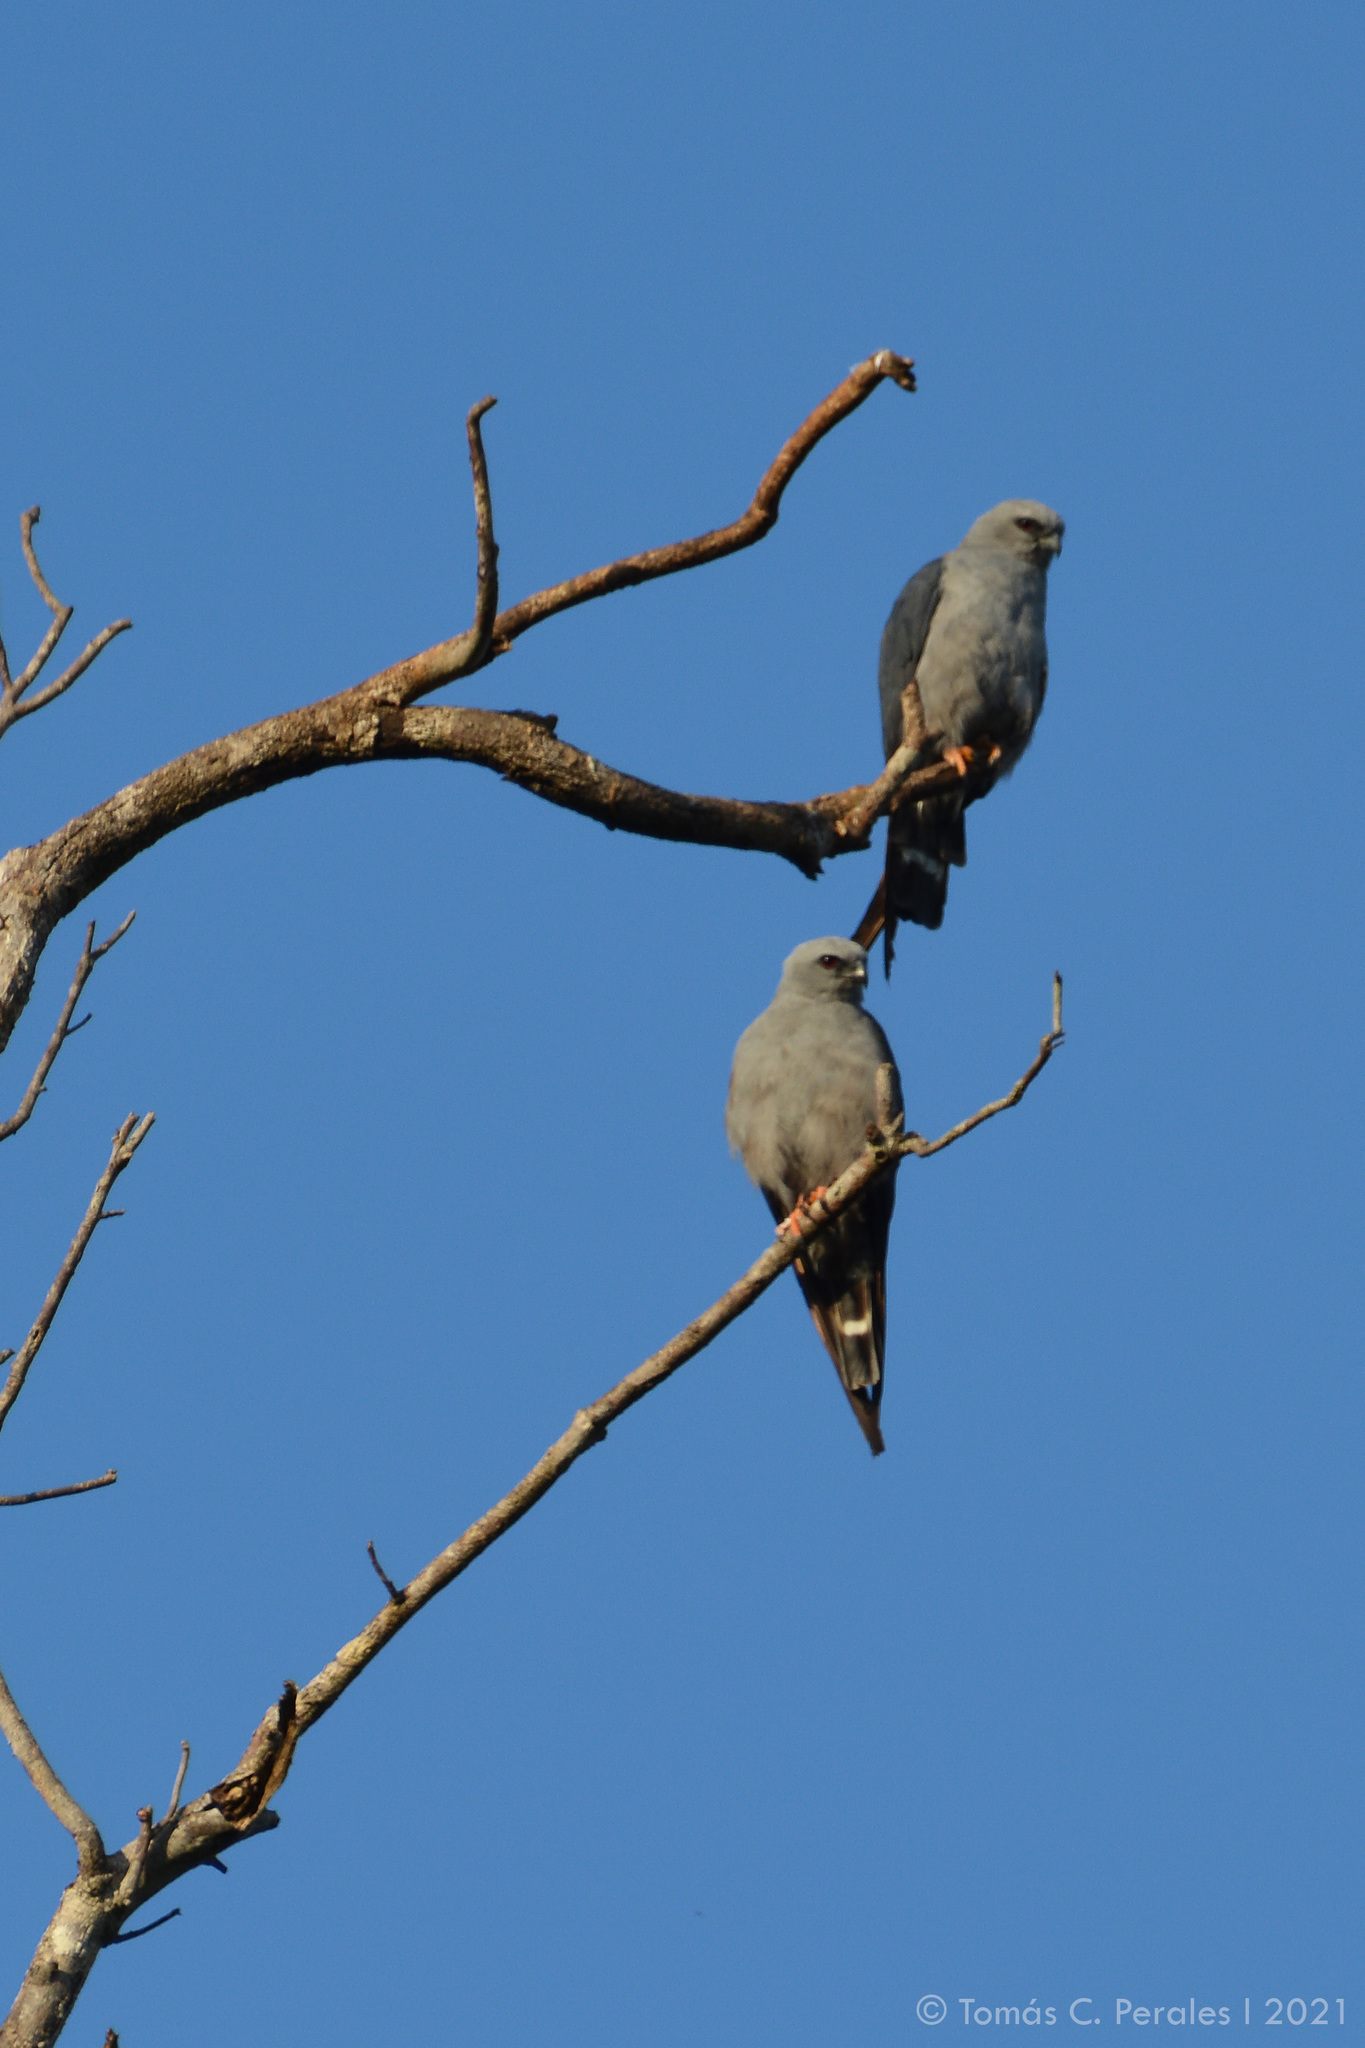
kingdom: Animalia
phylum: Chordata
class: Aves
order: Accipitriformes
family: Accipitridae
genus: Ictinia
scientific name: Ictinia plumbea
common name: Plumbeous kite
